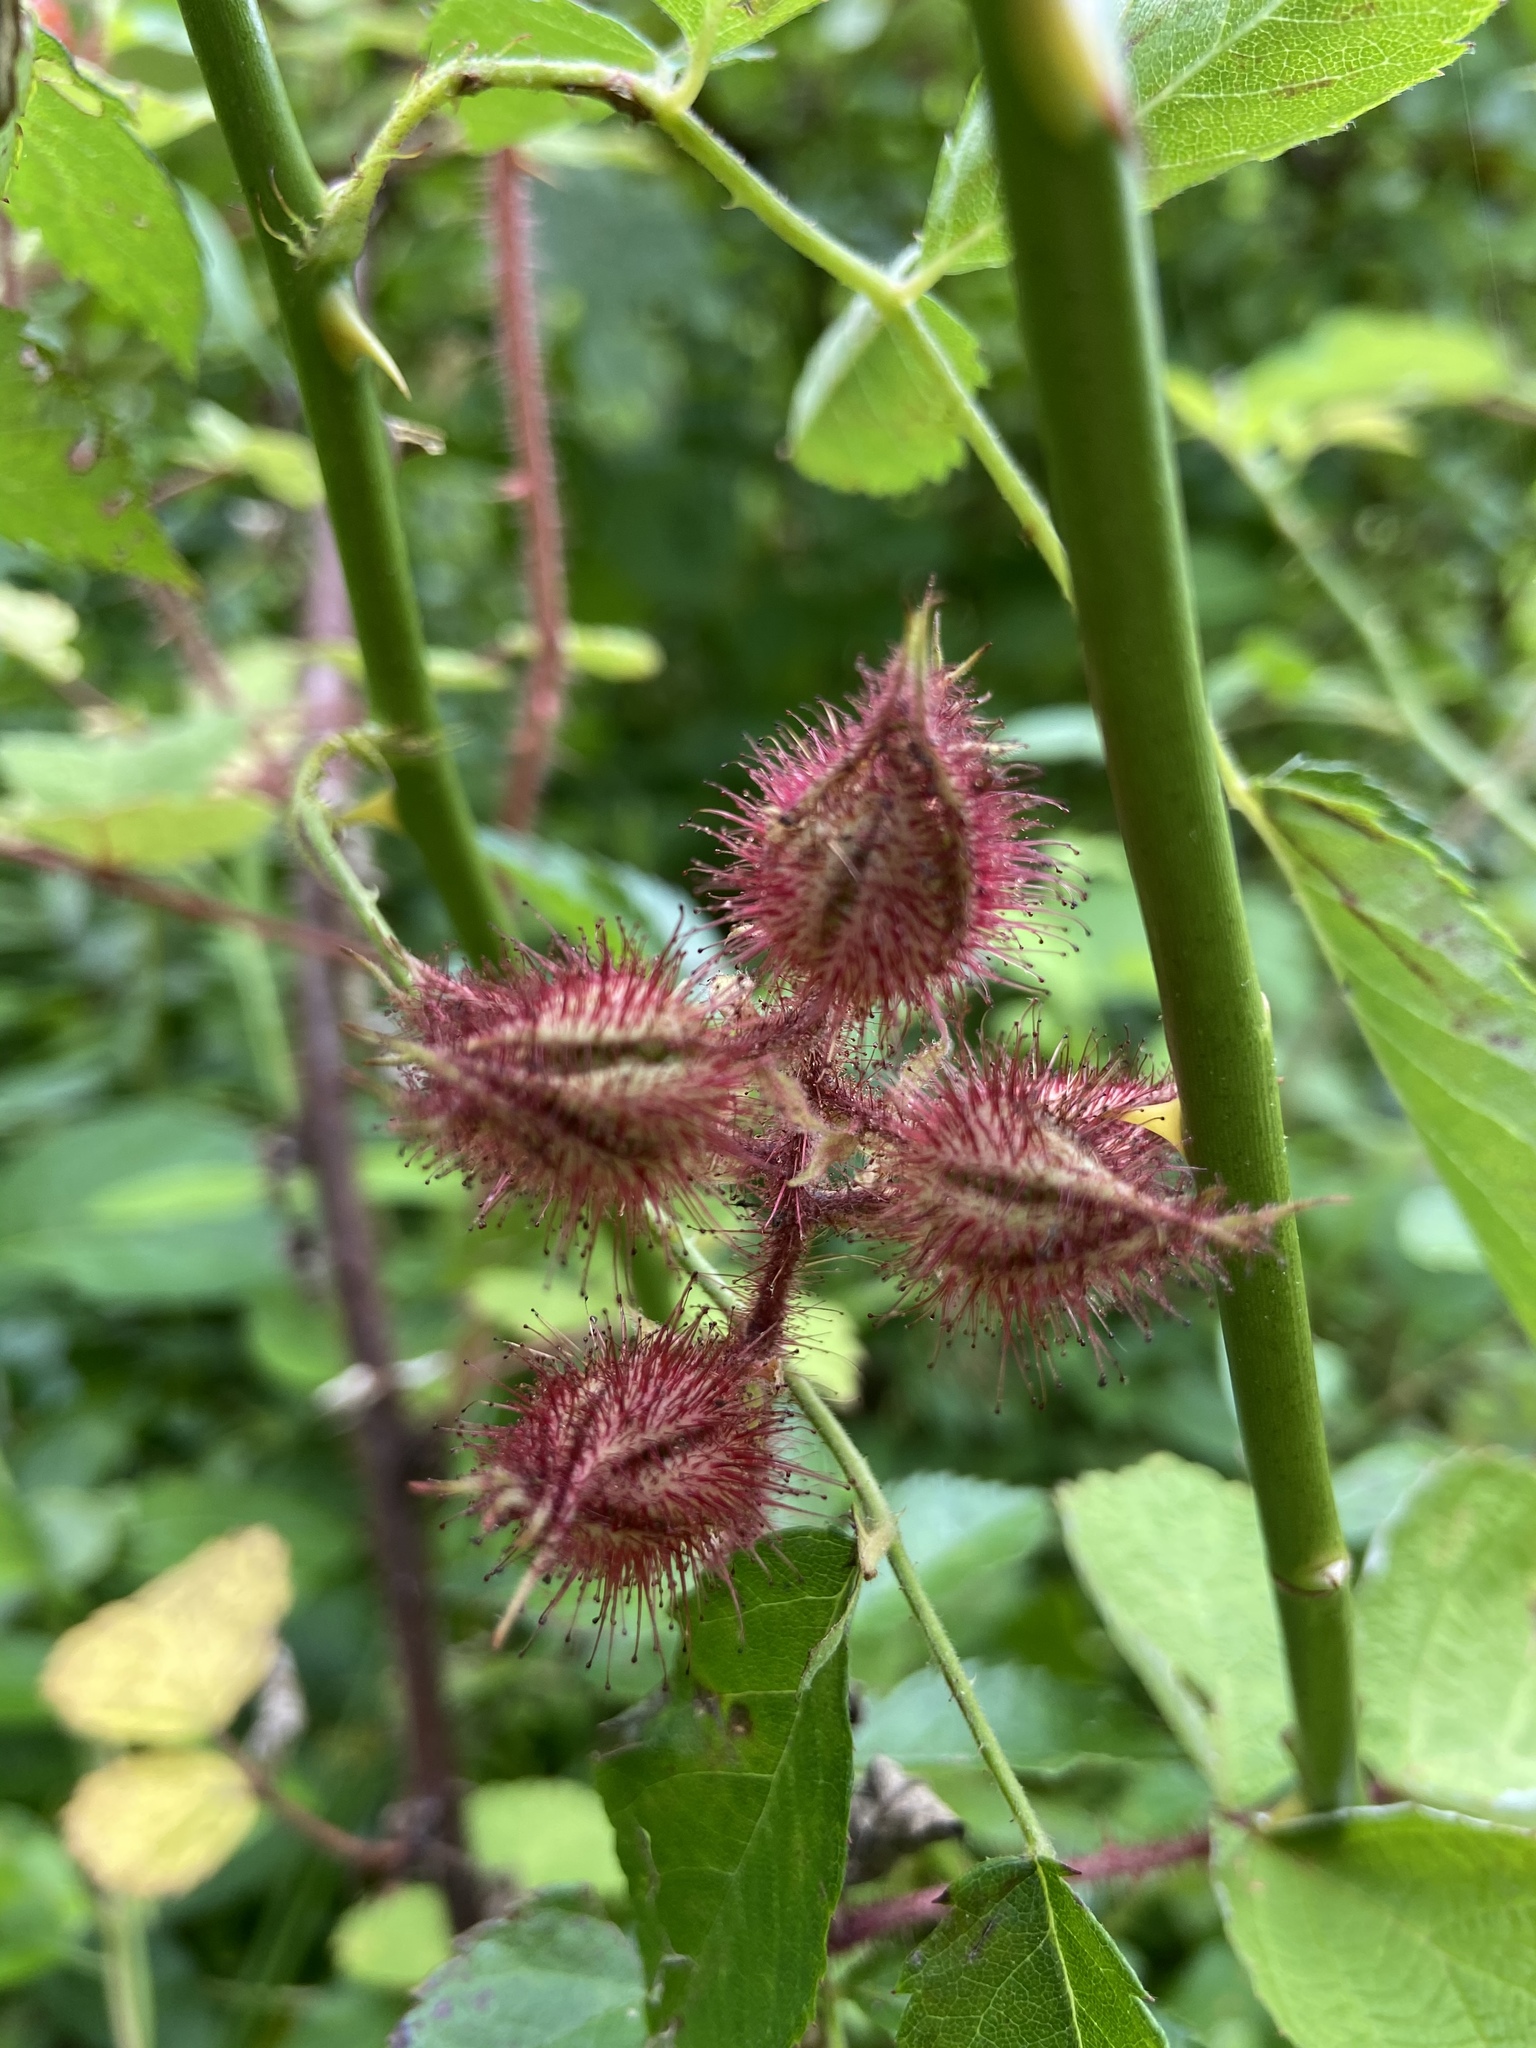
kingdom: Plantae
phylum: Tracheophyta
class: Magnoliopsida
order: Rosales
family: Rosaceae
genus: Rubus
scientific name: Rubus phoenicolasius
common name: Japanese wineberry
